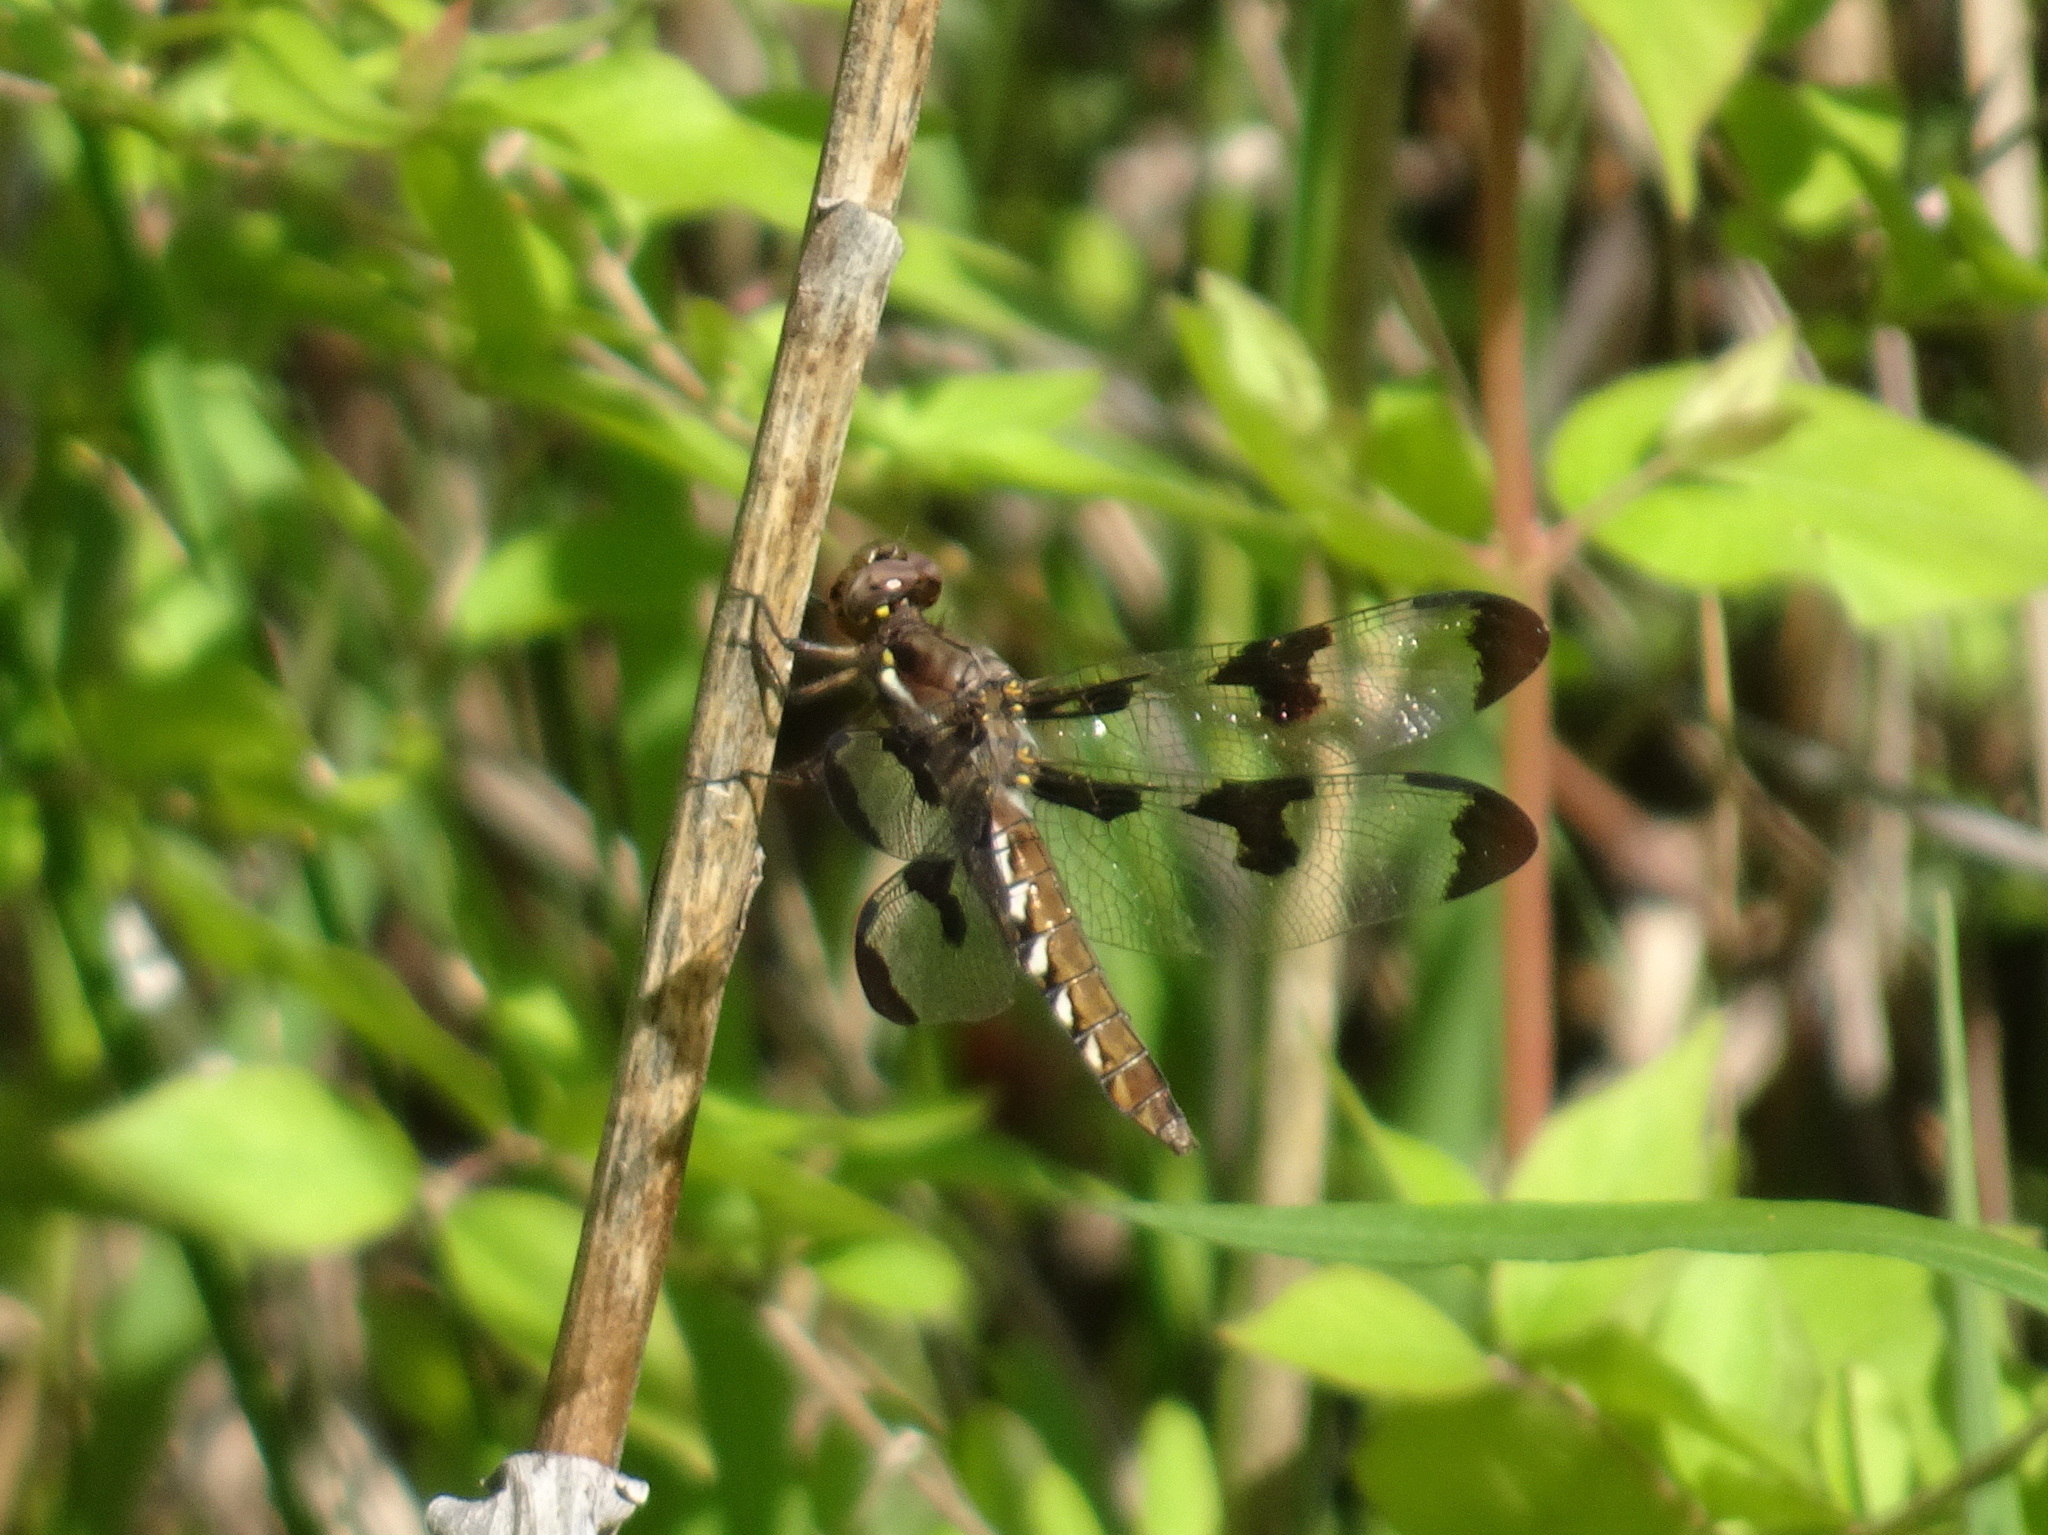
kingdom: Animalia
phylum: Arthropoda
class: Insecta
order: Odonata
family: Libellulidae
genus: Plathemis
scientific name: Plathemis lydia
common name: Common whitetail
